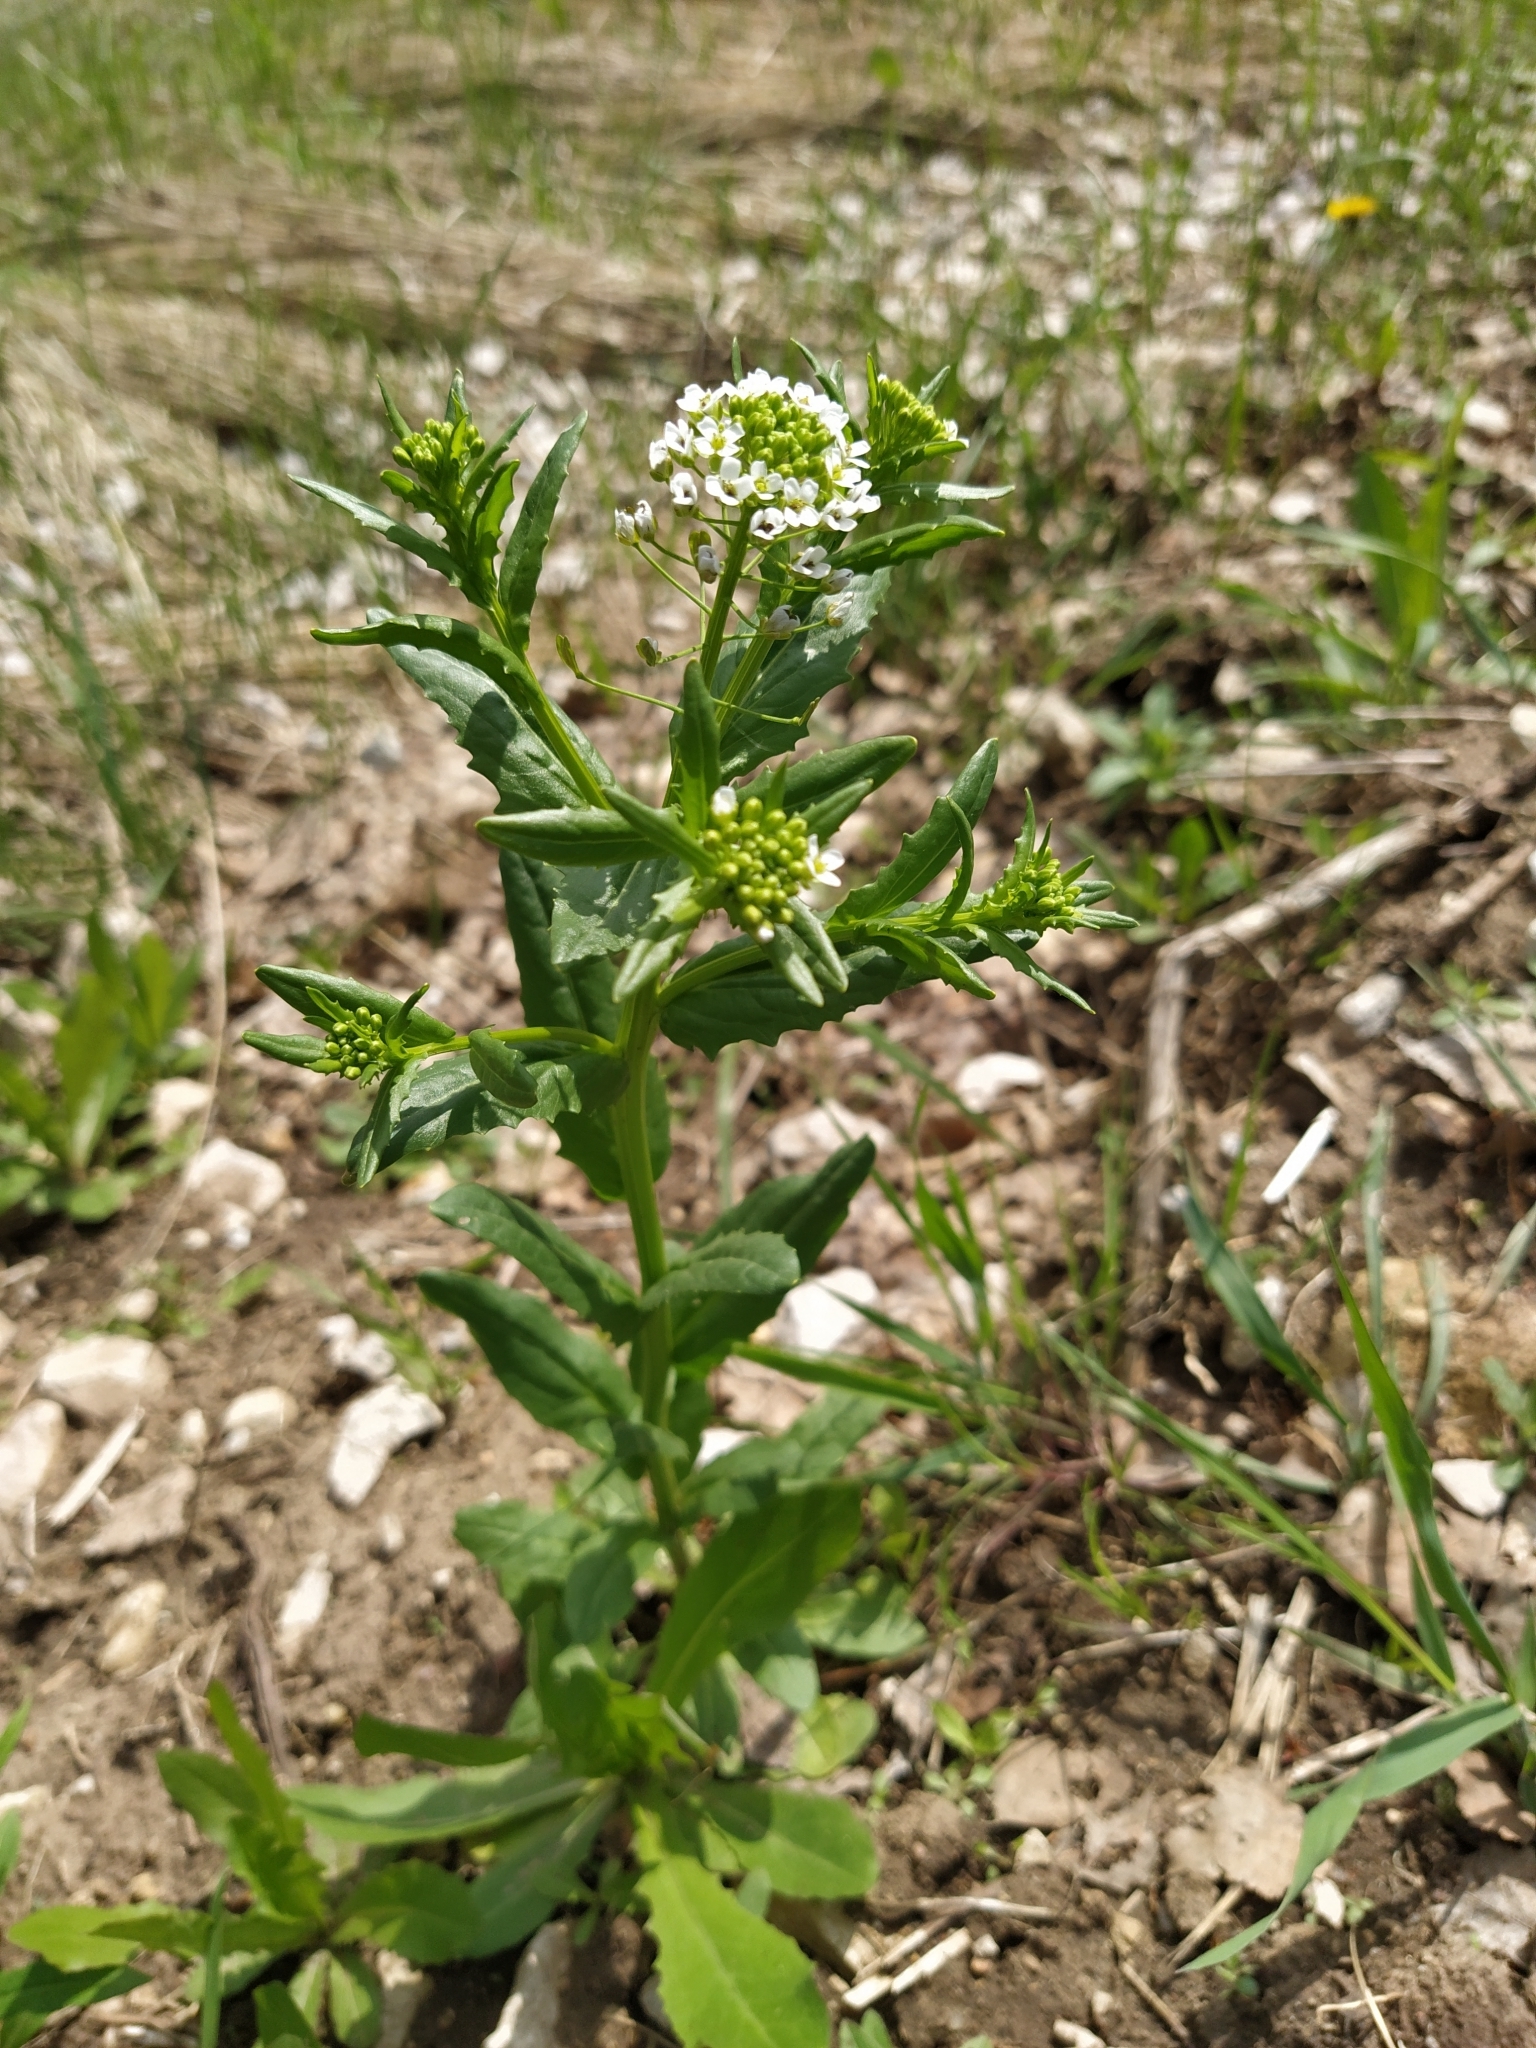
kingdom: Plantae
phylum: Tracheophyta
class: Magnoliopsida
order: Brassicales
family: Brassicaceae
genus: Thlaspi
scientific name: Thlaspi arvense
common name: Field pennycress
